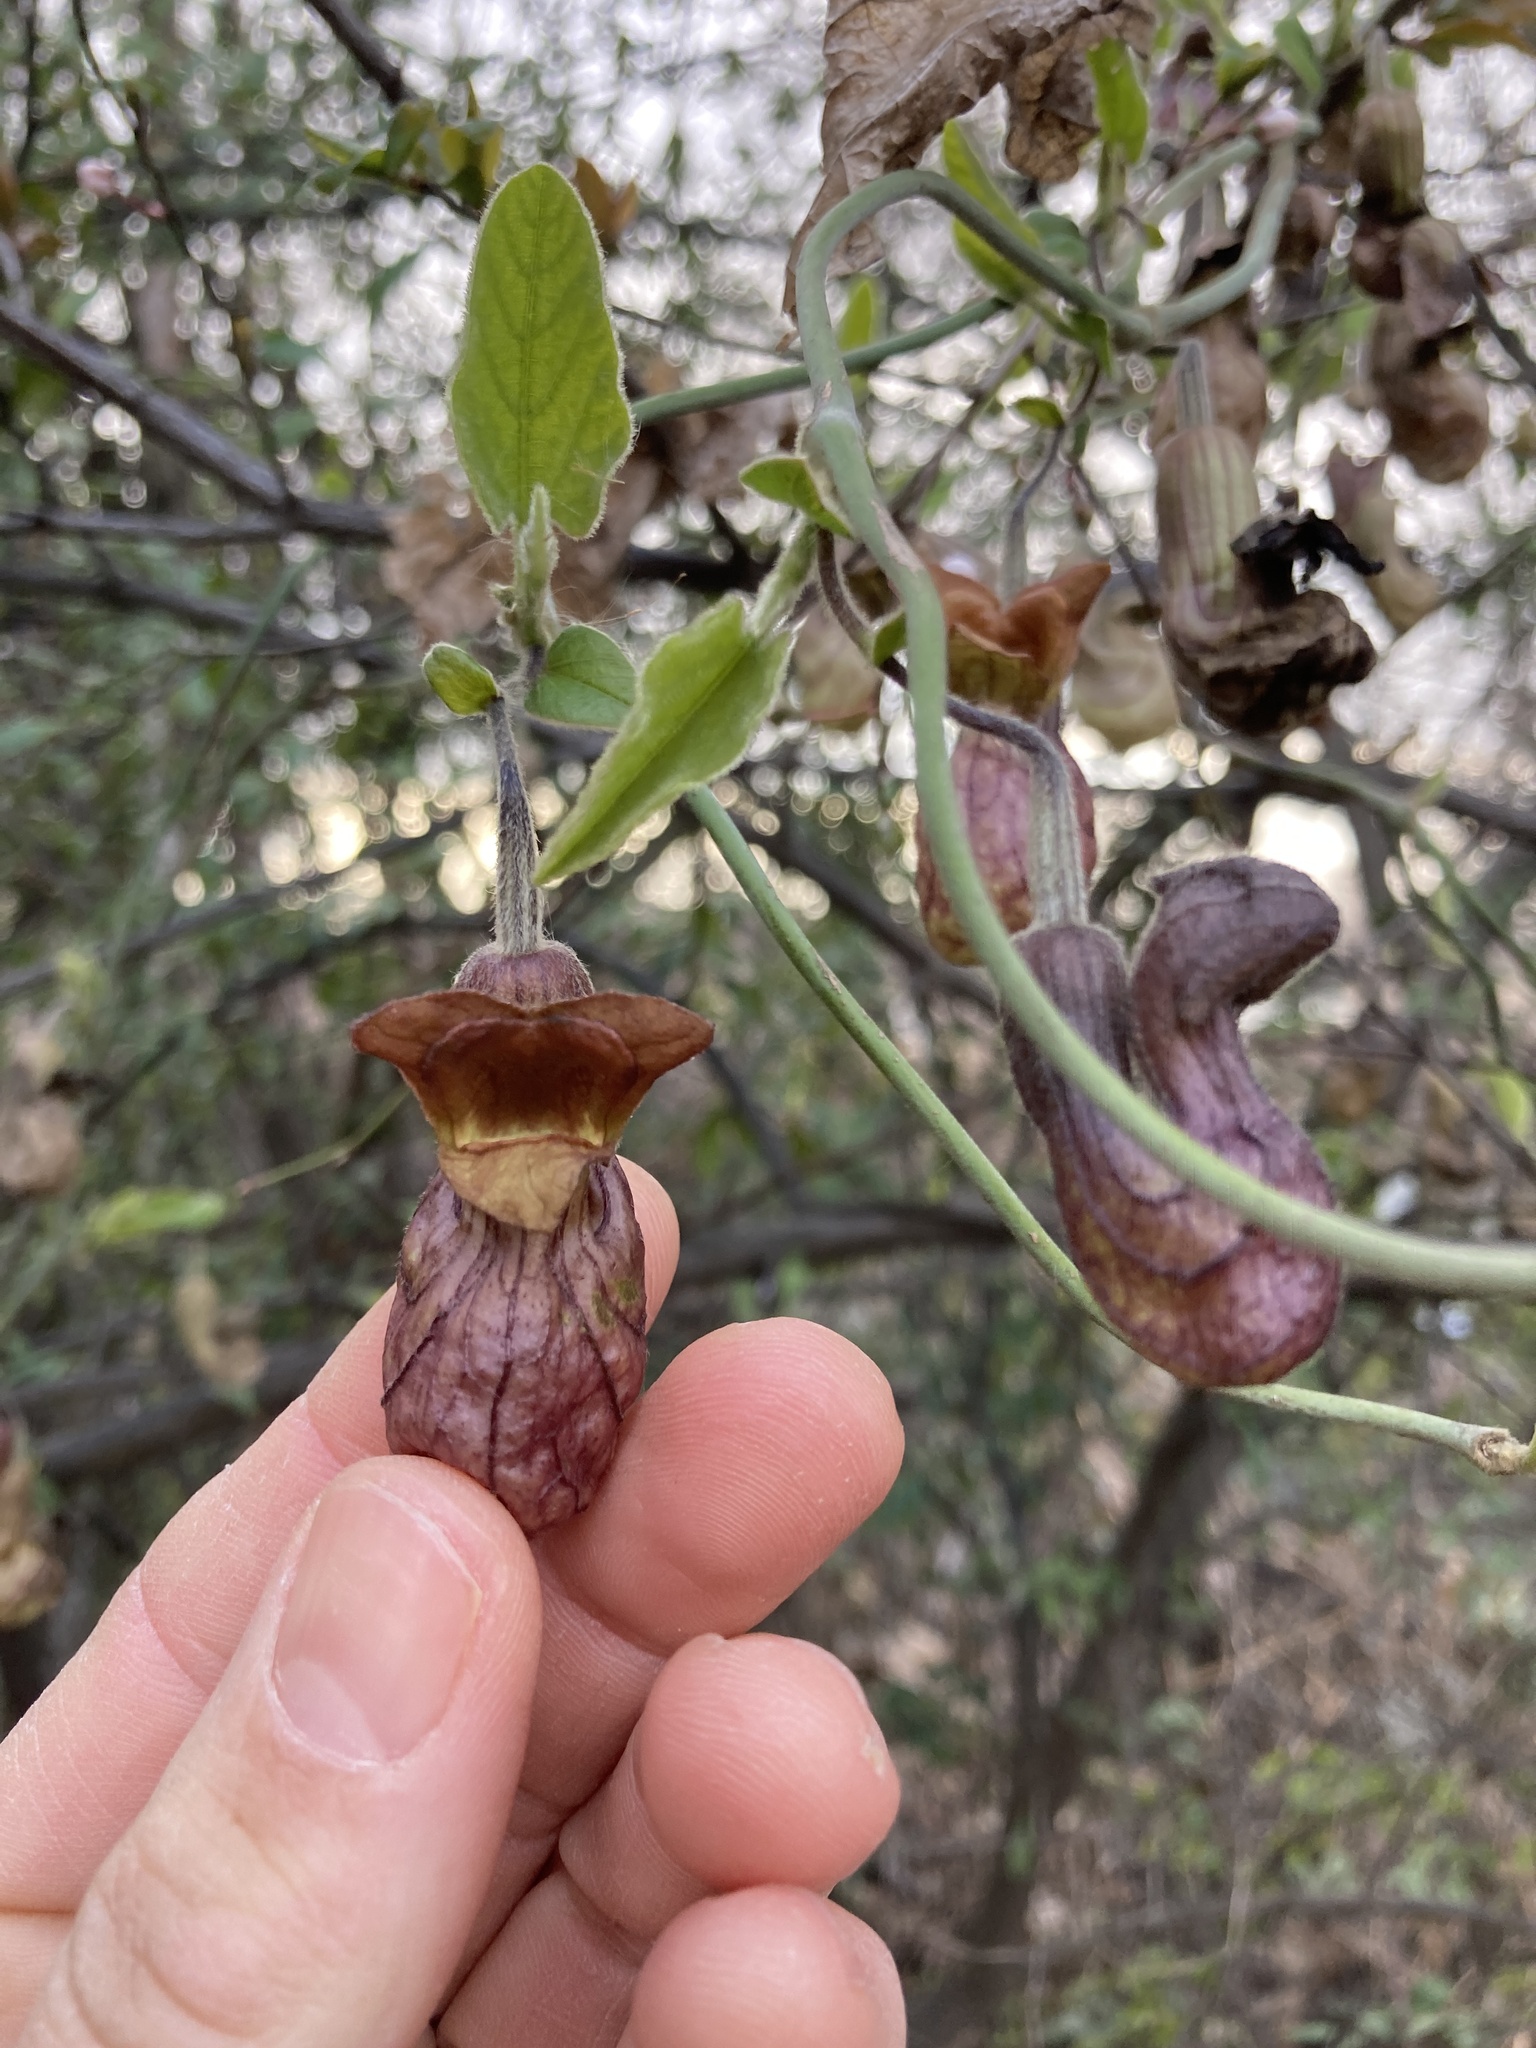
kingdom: Plantae
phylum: Tracheophyta
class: Magnoliopsida
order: Piperales
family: Aristolochiaceae
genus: Isotrema
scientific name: Isotrema californicum
